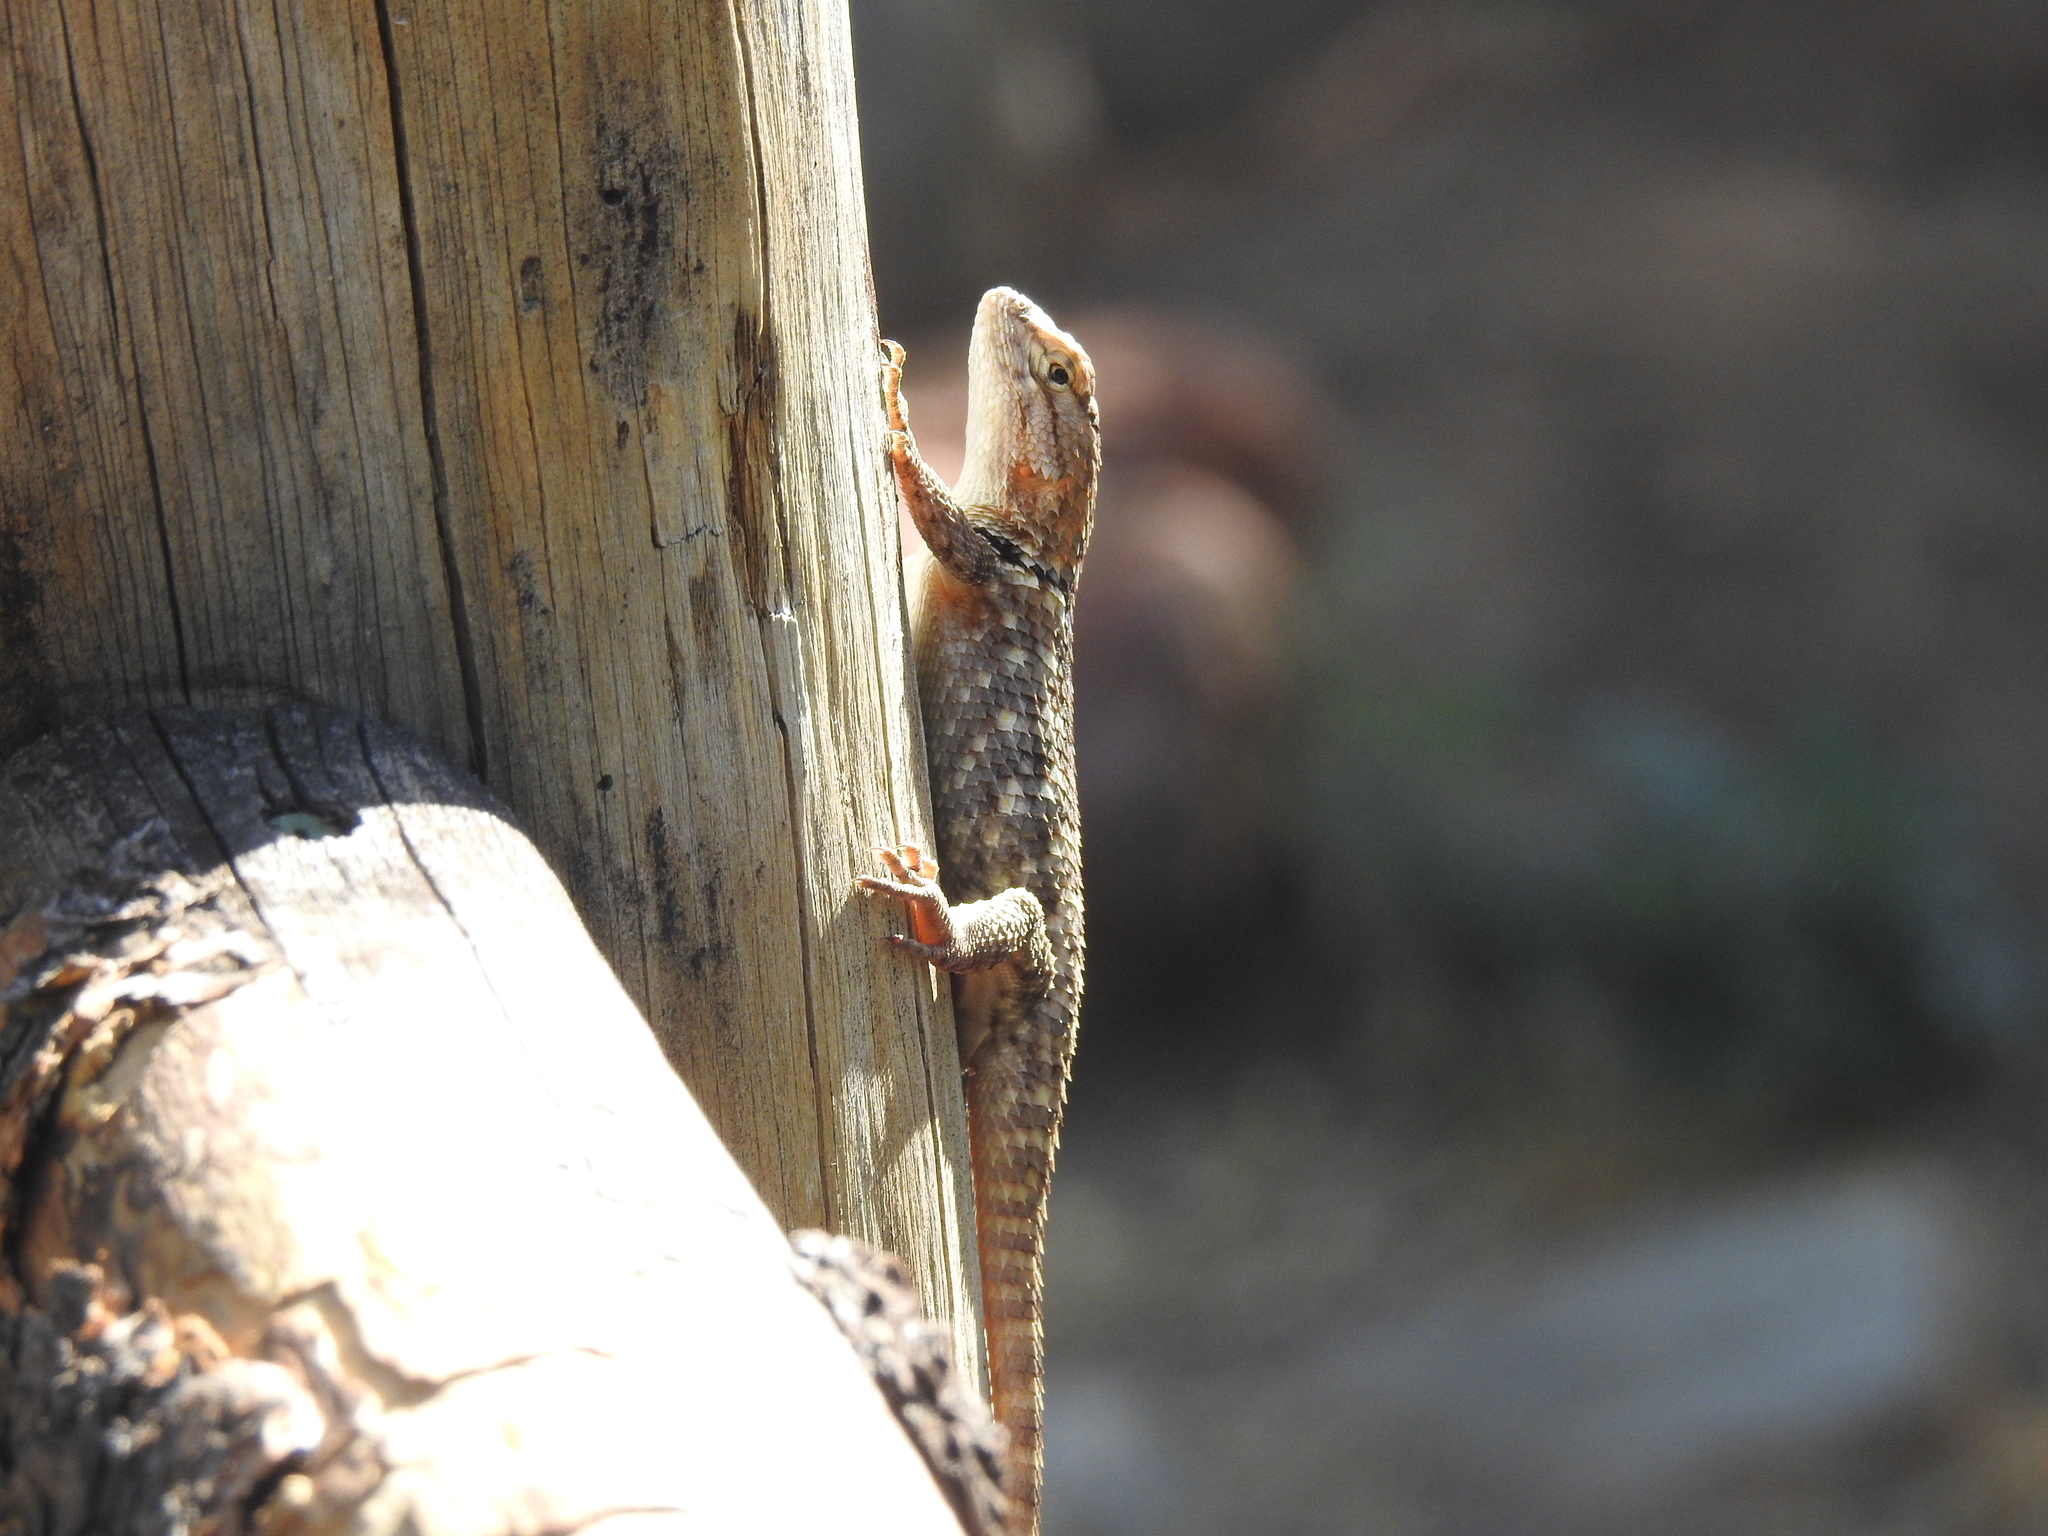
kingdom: Animalia
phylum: Chordata
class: Squamata
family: Phrynosomatidae
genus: Sceloporus
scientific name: Sceloporus magister
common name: Desert spiny lizard
